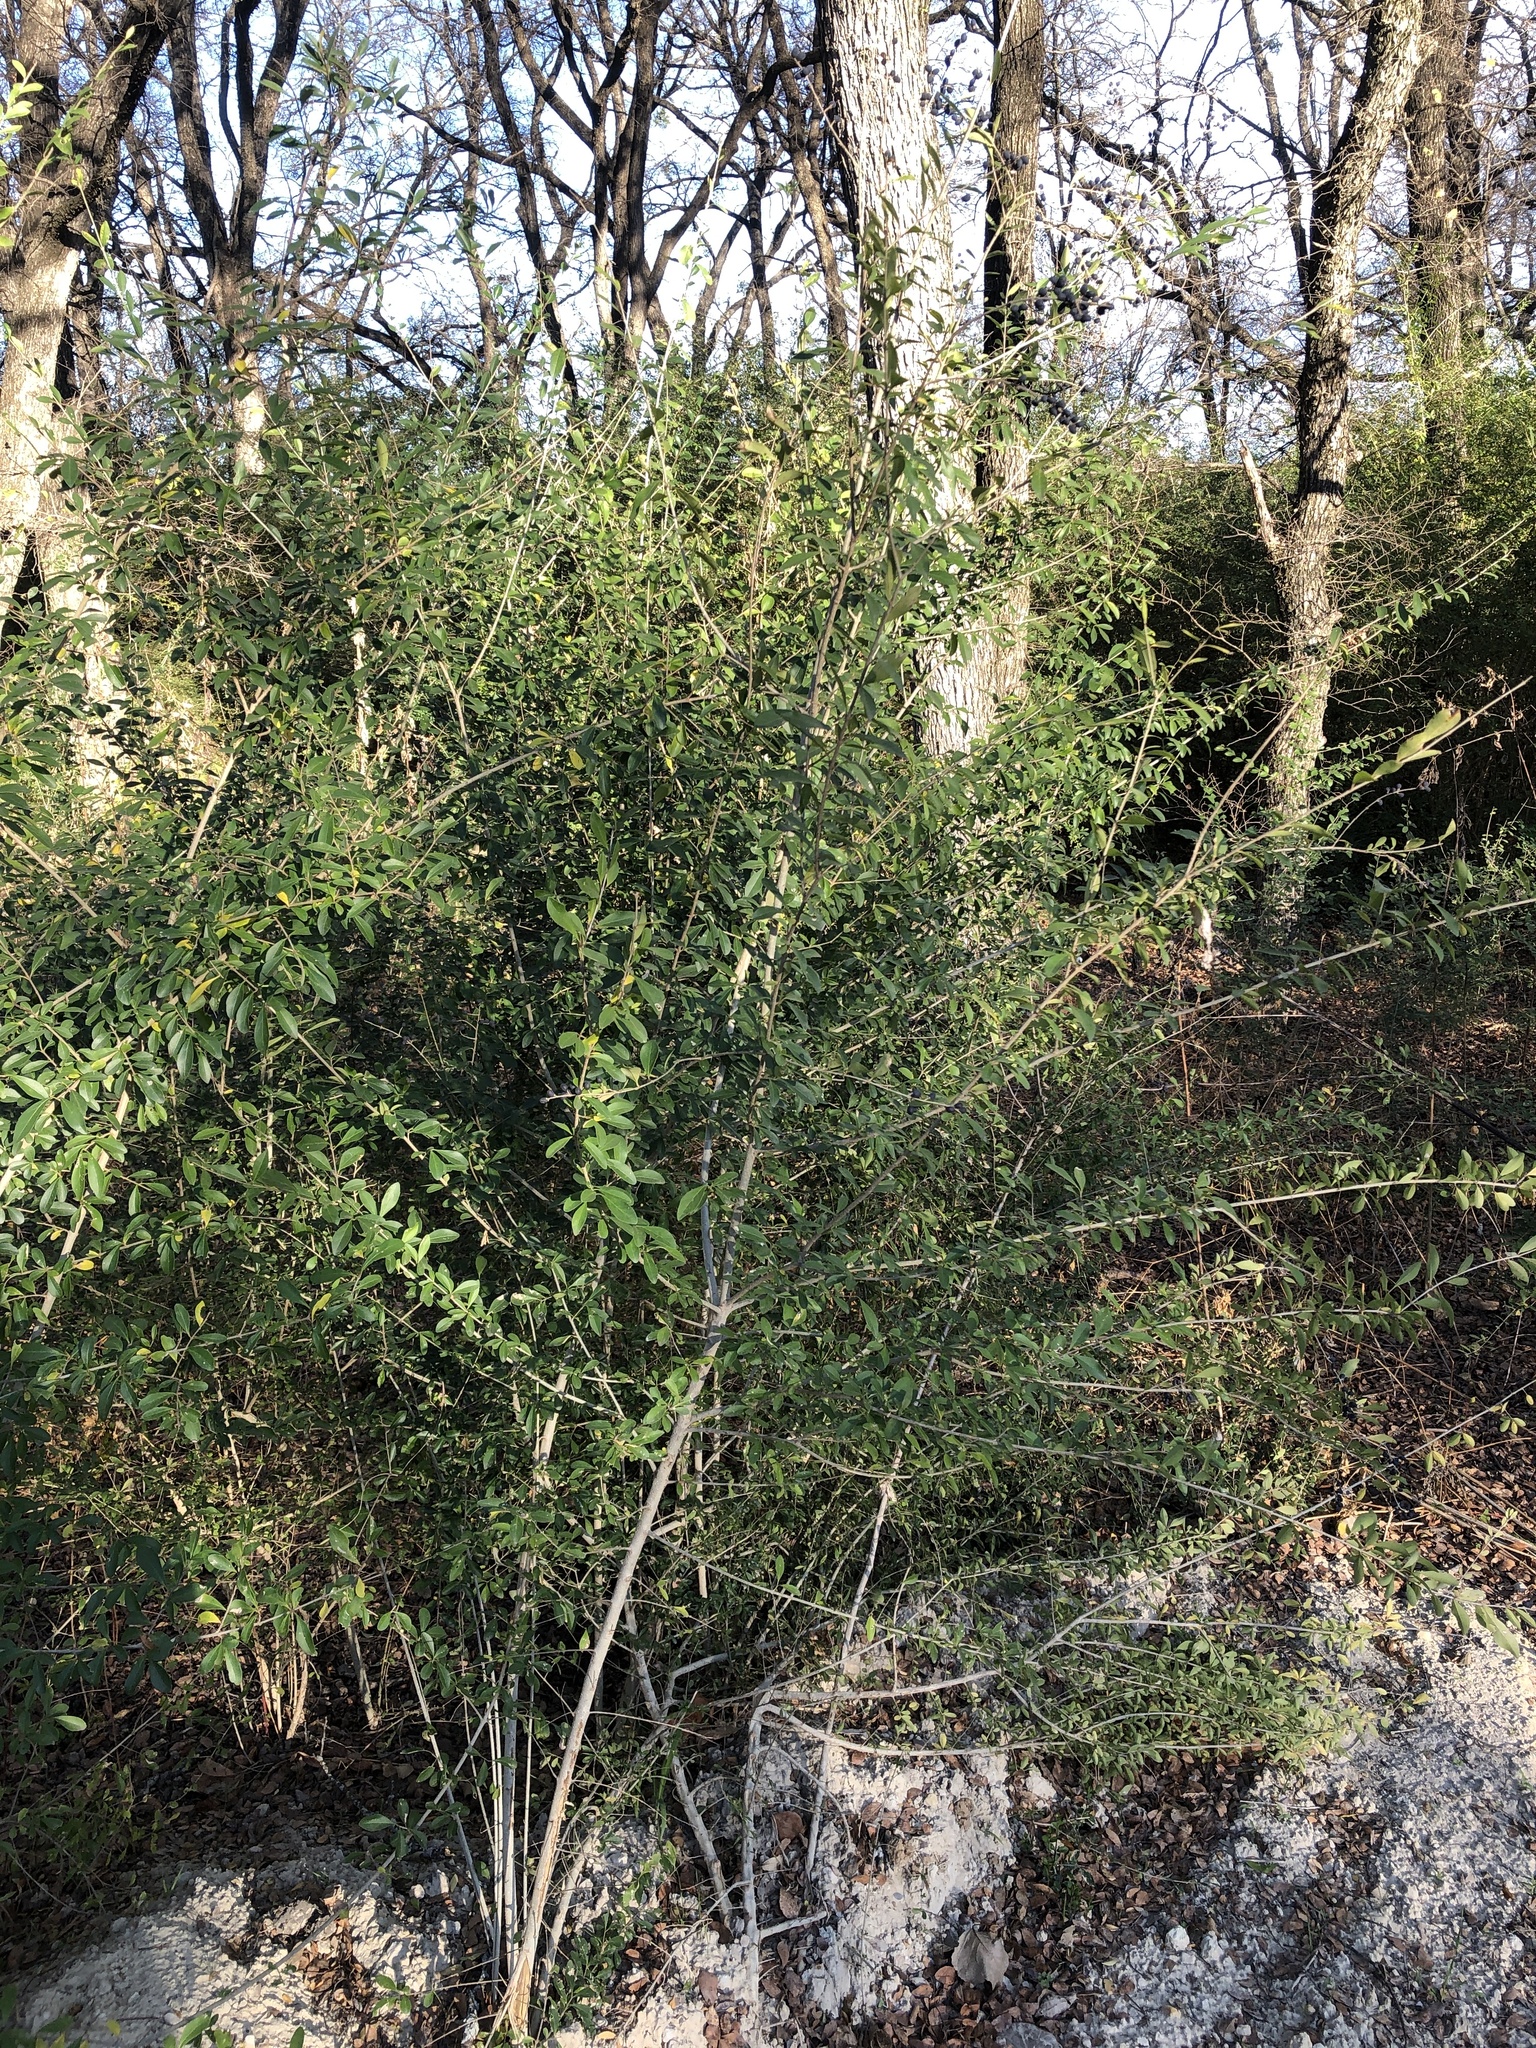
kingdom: Plantae
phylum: Tracheophyta
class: Magnoliopsida
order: Lamiales
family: Oleaceae
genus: Ligustrum
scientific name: Ligustrum quihoui
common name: Waxyleaf privet
